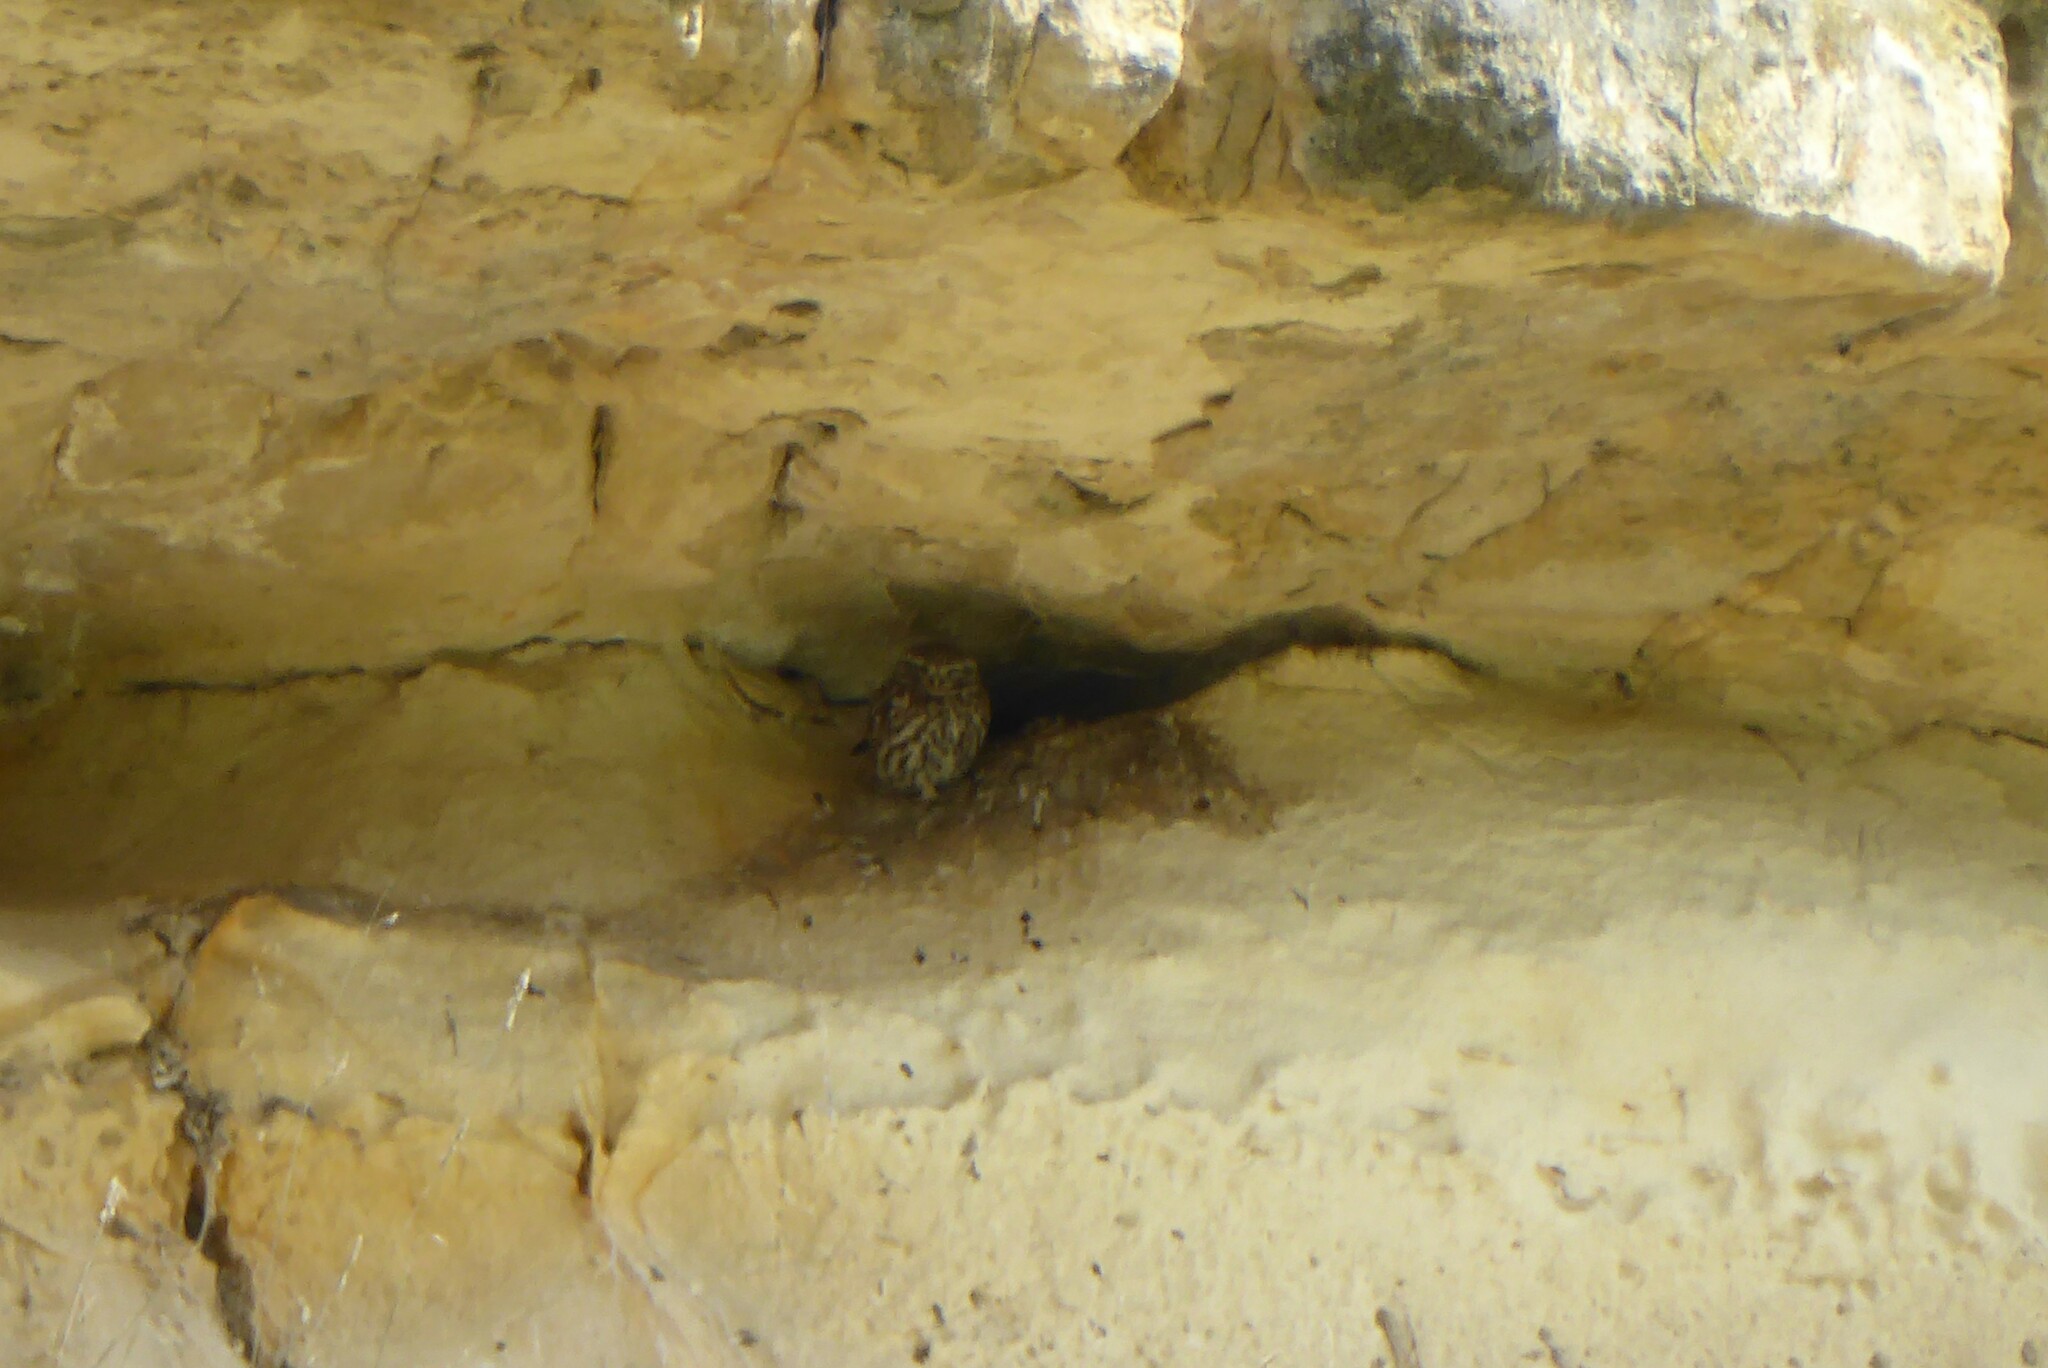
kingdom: Animalia
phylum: Chordata
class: Aves
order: Strigiformes
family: Strigidae
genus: Athene
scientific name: Athene noctua
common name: Little owl
